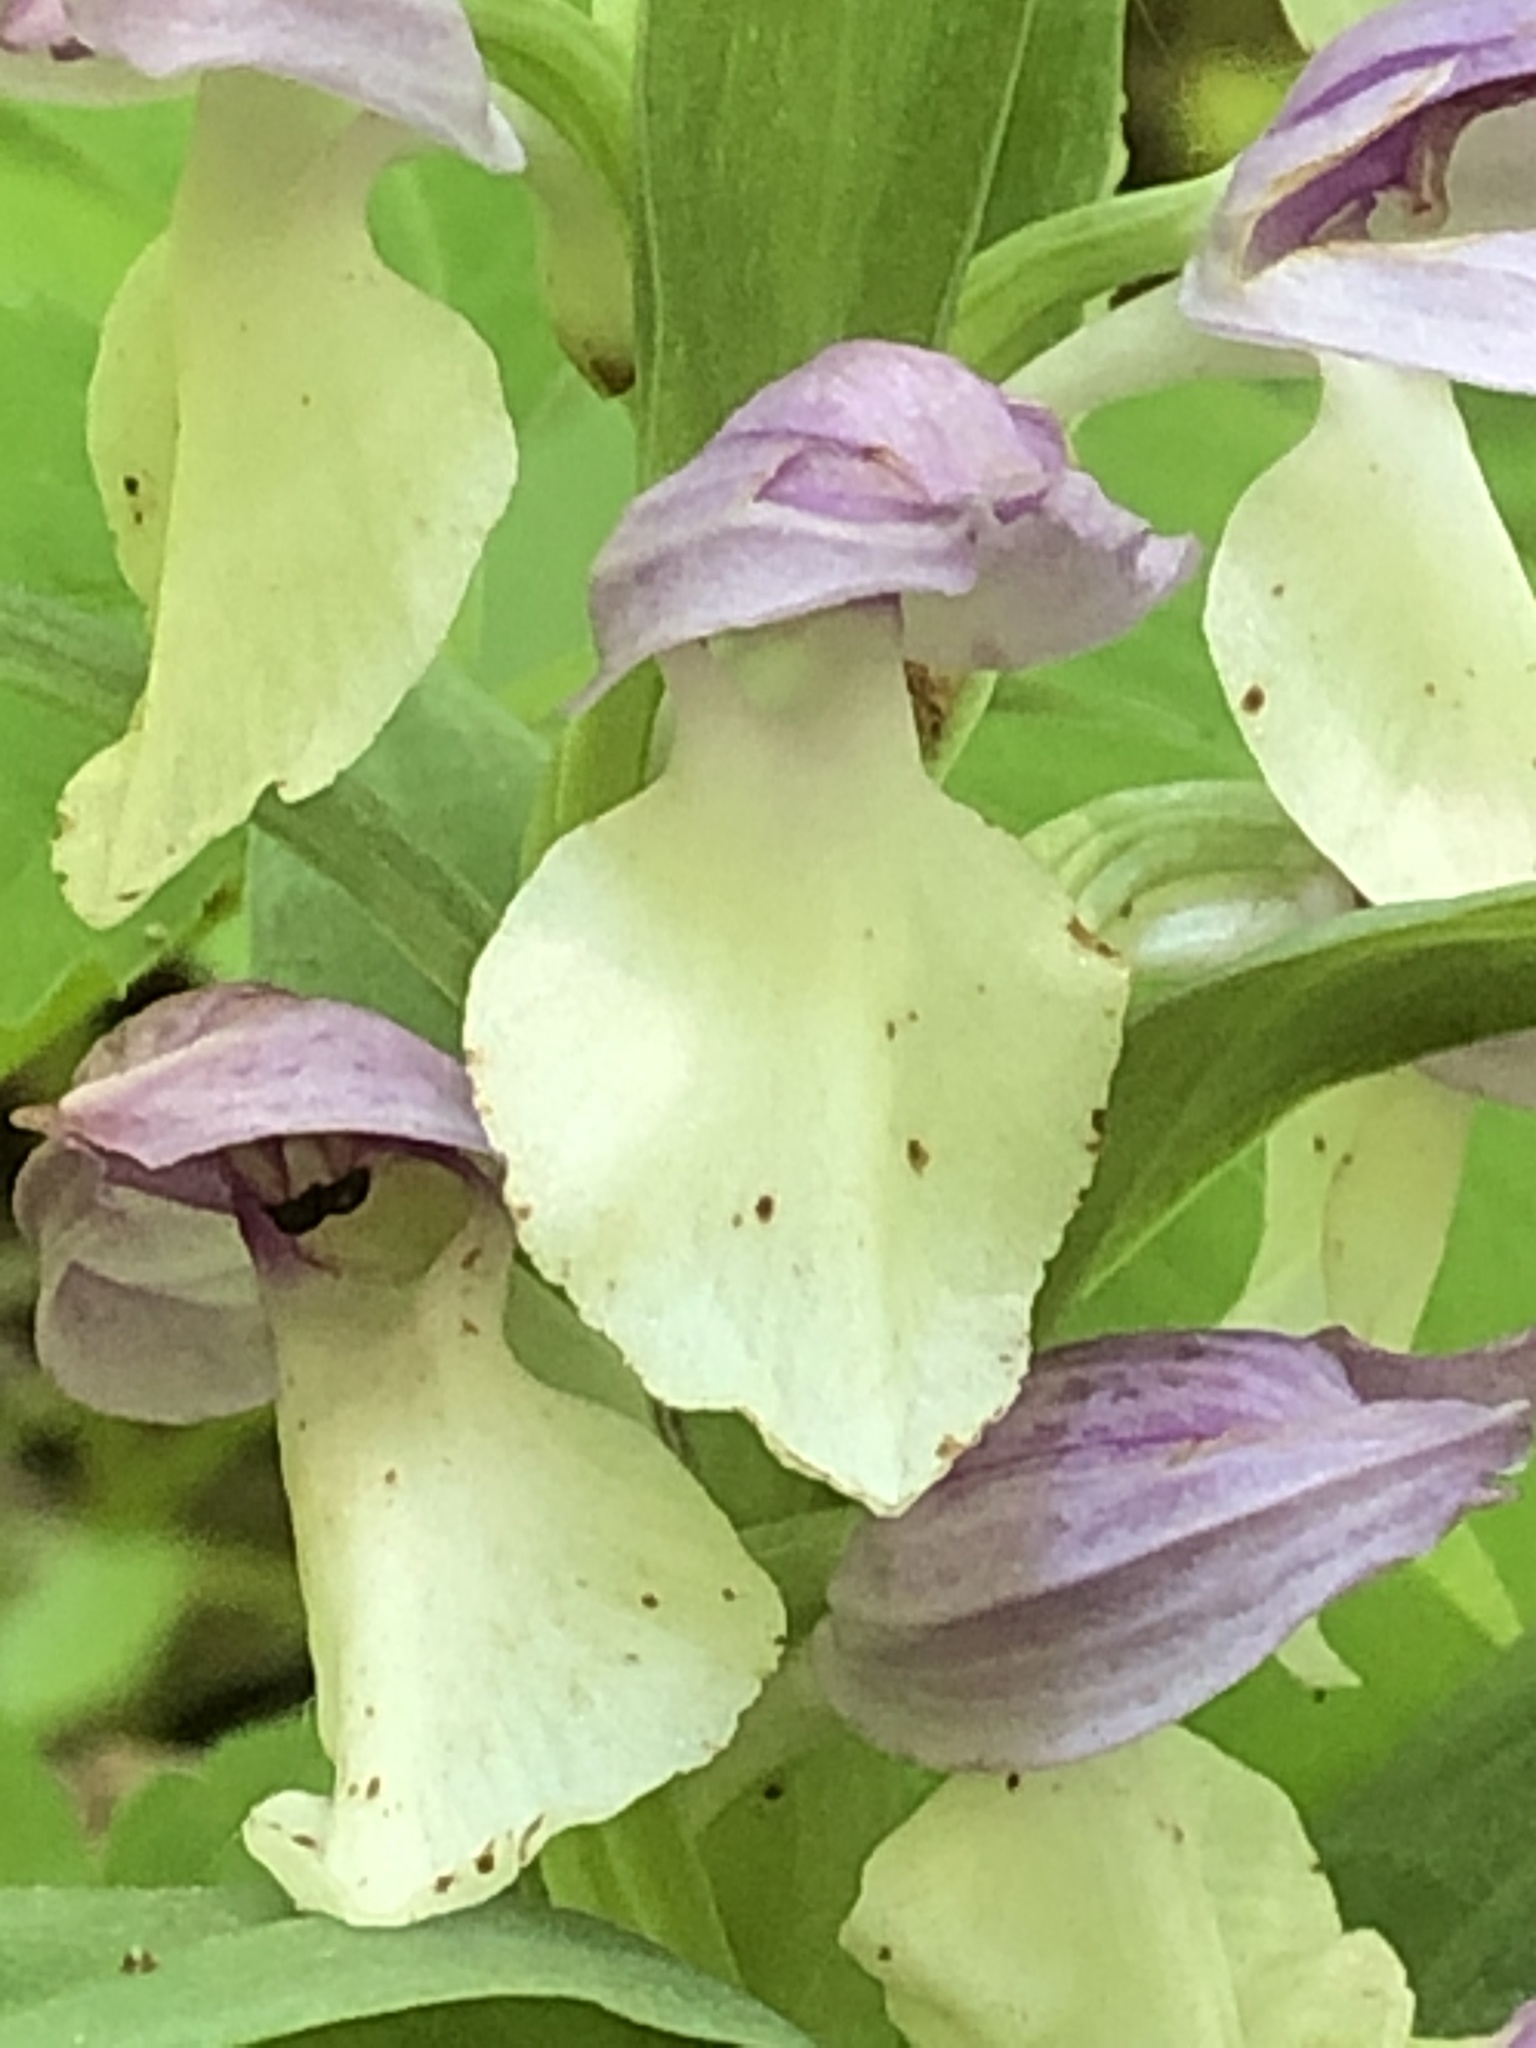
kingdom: Plantae
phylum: Tracheophyta
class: Liliopsida
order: Asparagales
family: Orchidaceae
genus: Galearis
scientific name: Galearis spectabilis
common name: Purple-hooded orchis
